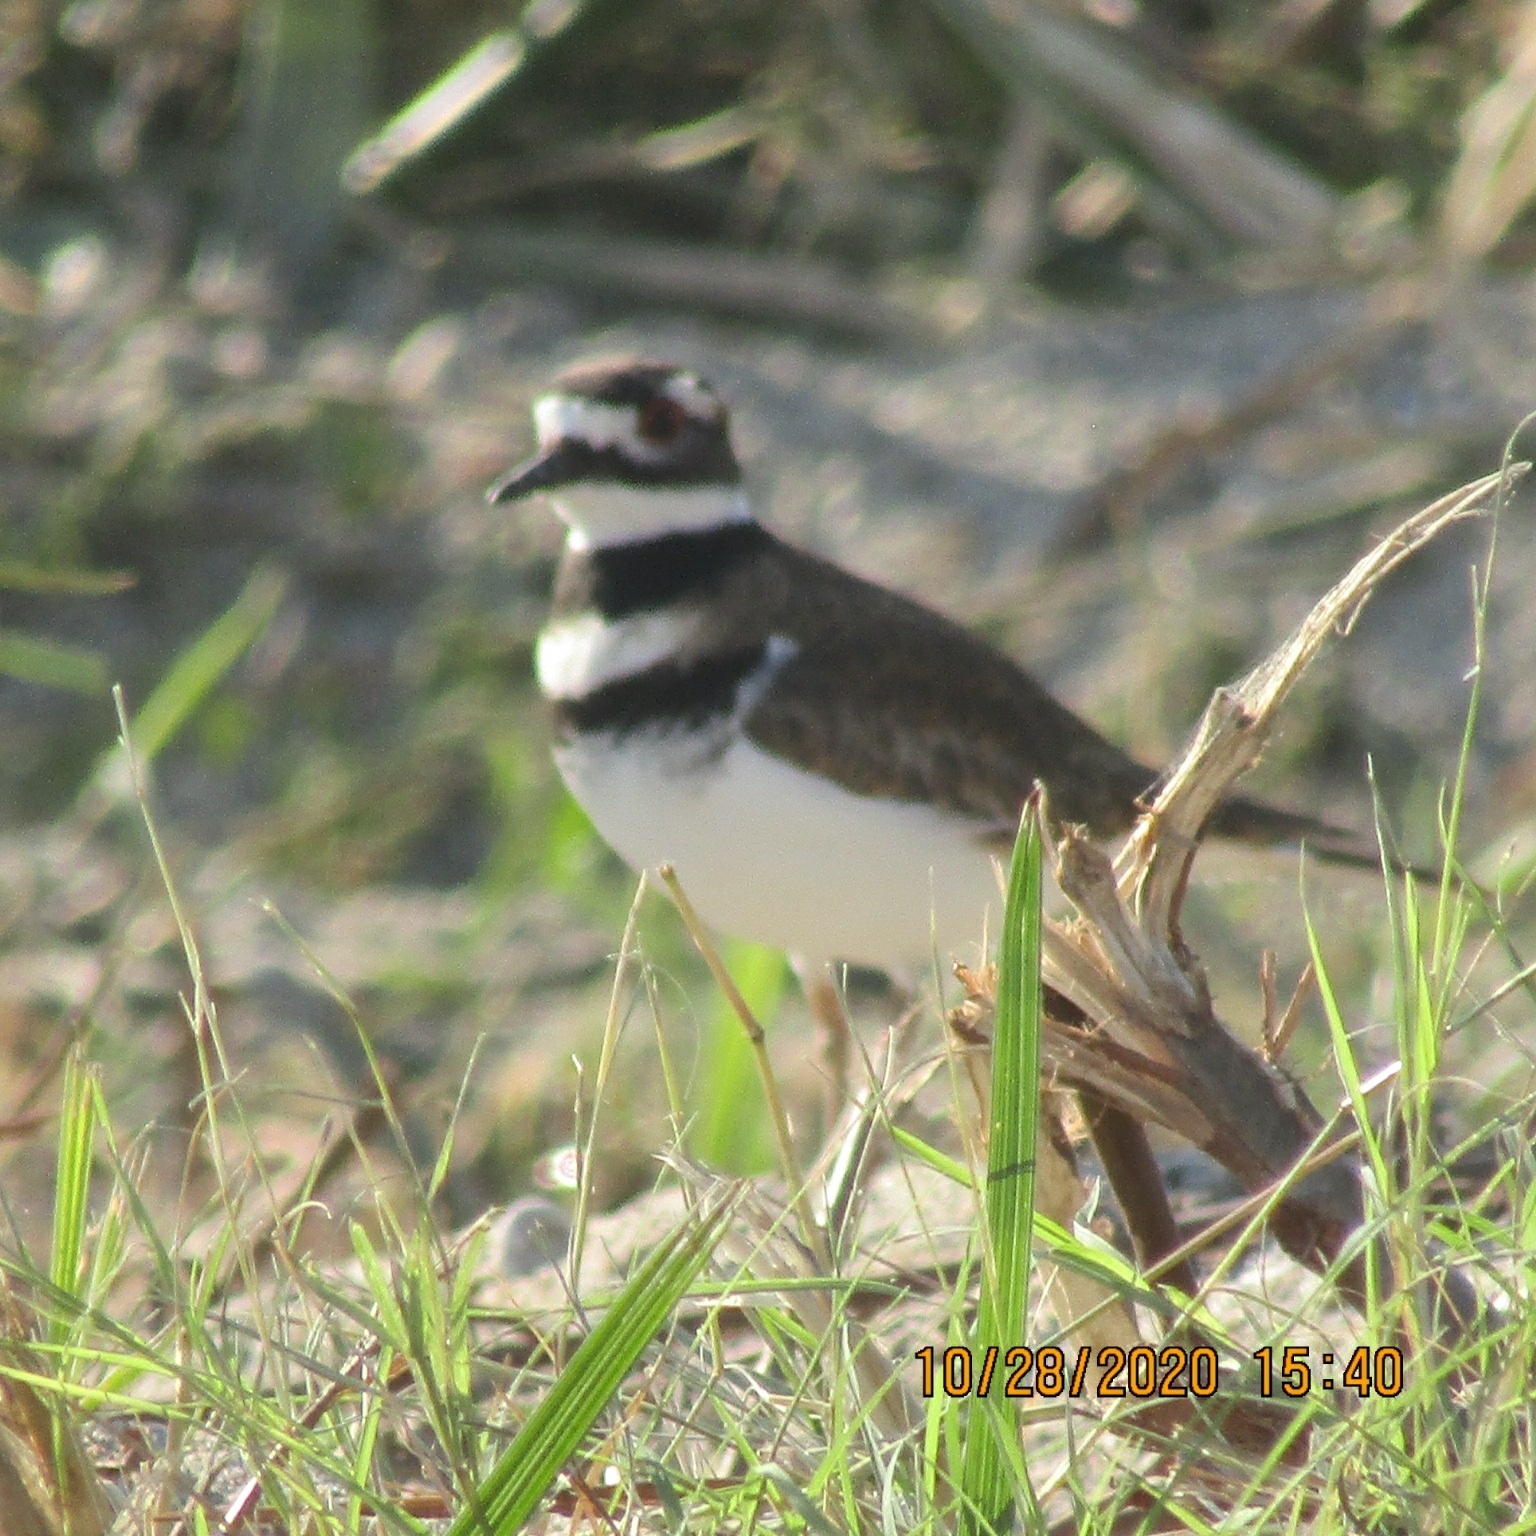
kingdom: Animalia
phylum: Chordata
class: Aves
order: Charadriiformes
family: Charadriidae
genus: Charadrius
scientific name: Charadrius vociferus
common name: Killdeer
